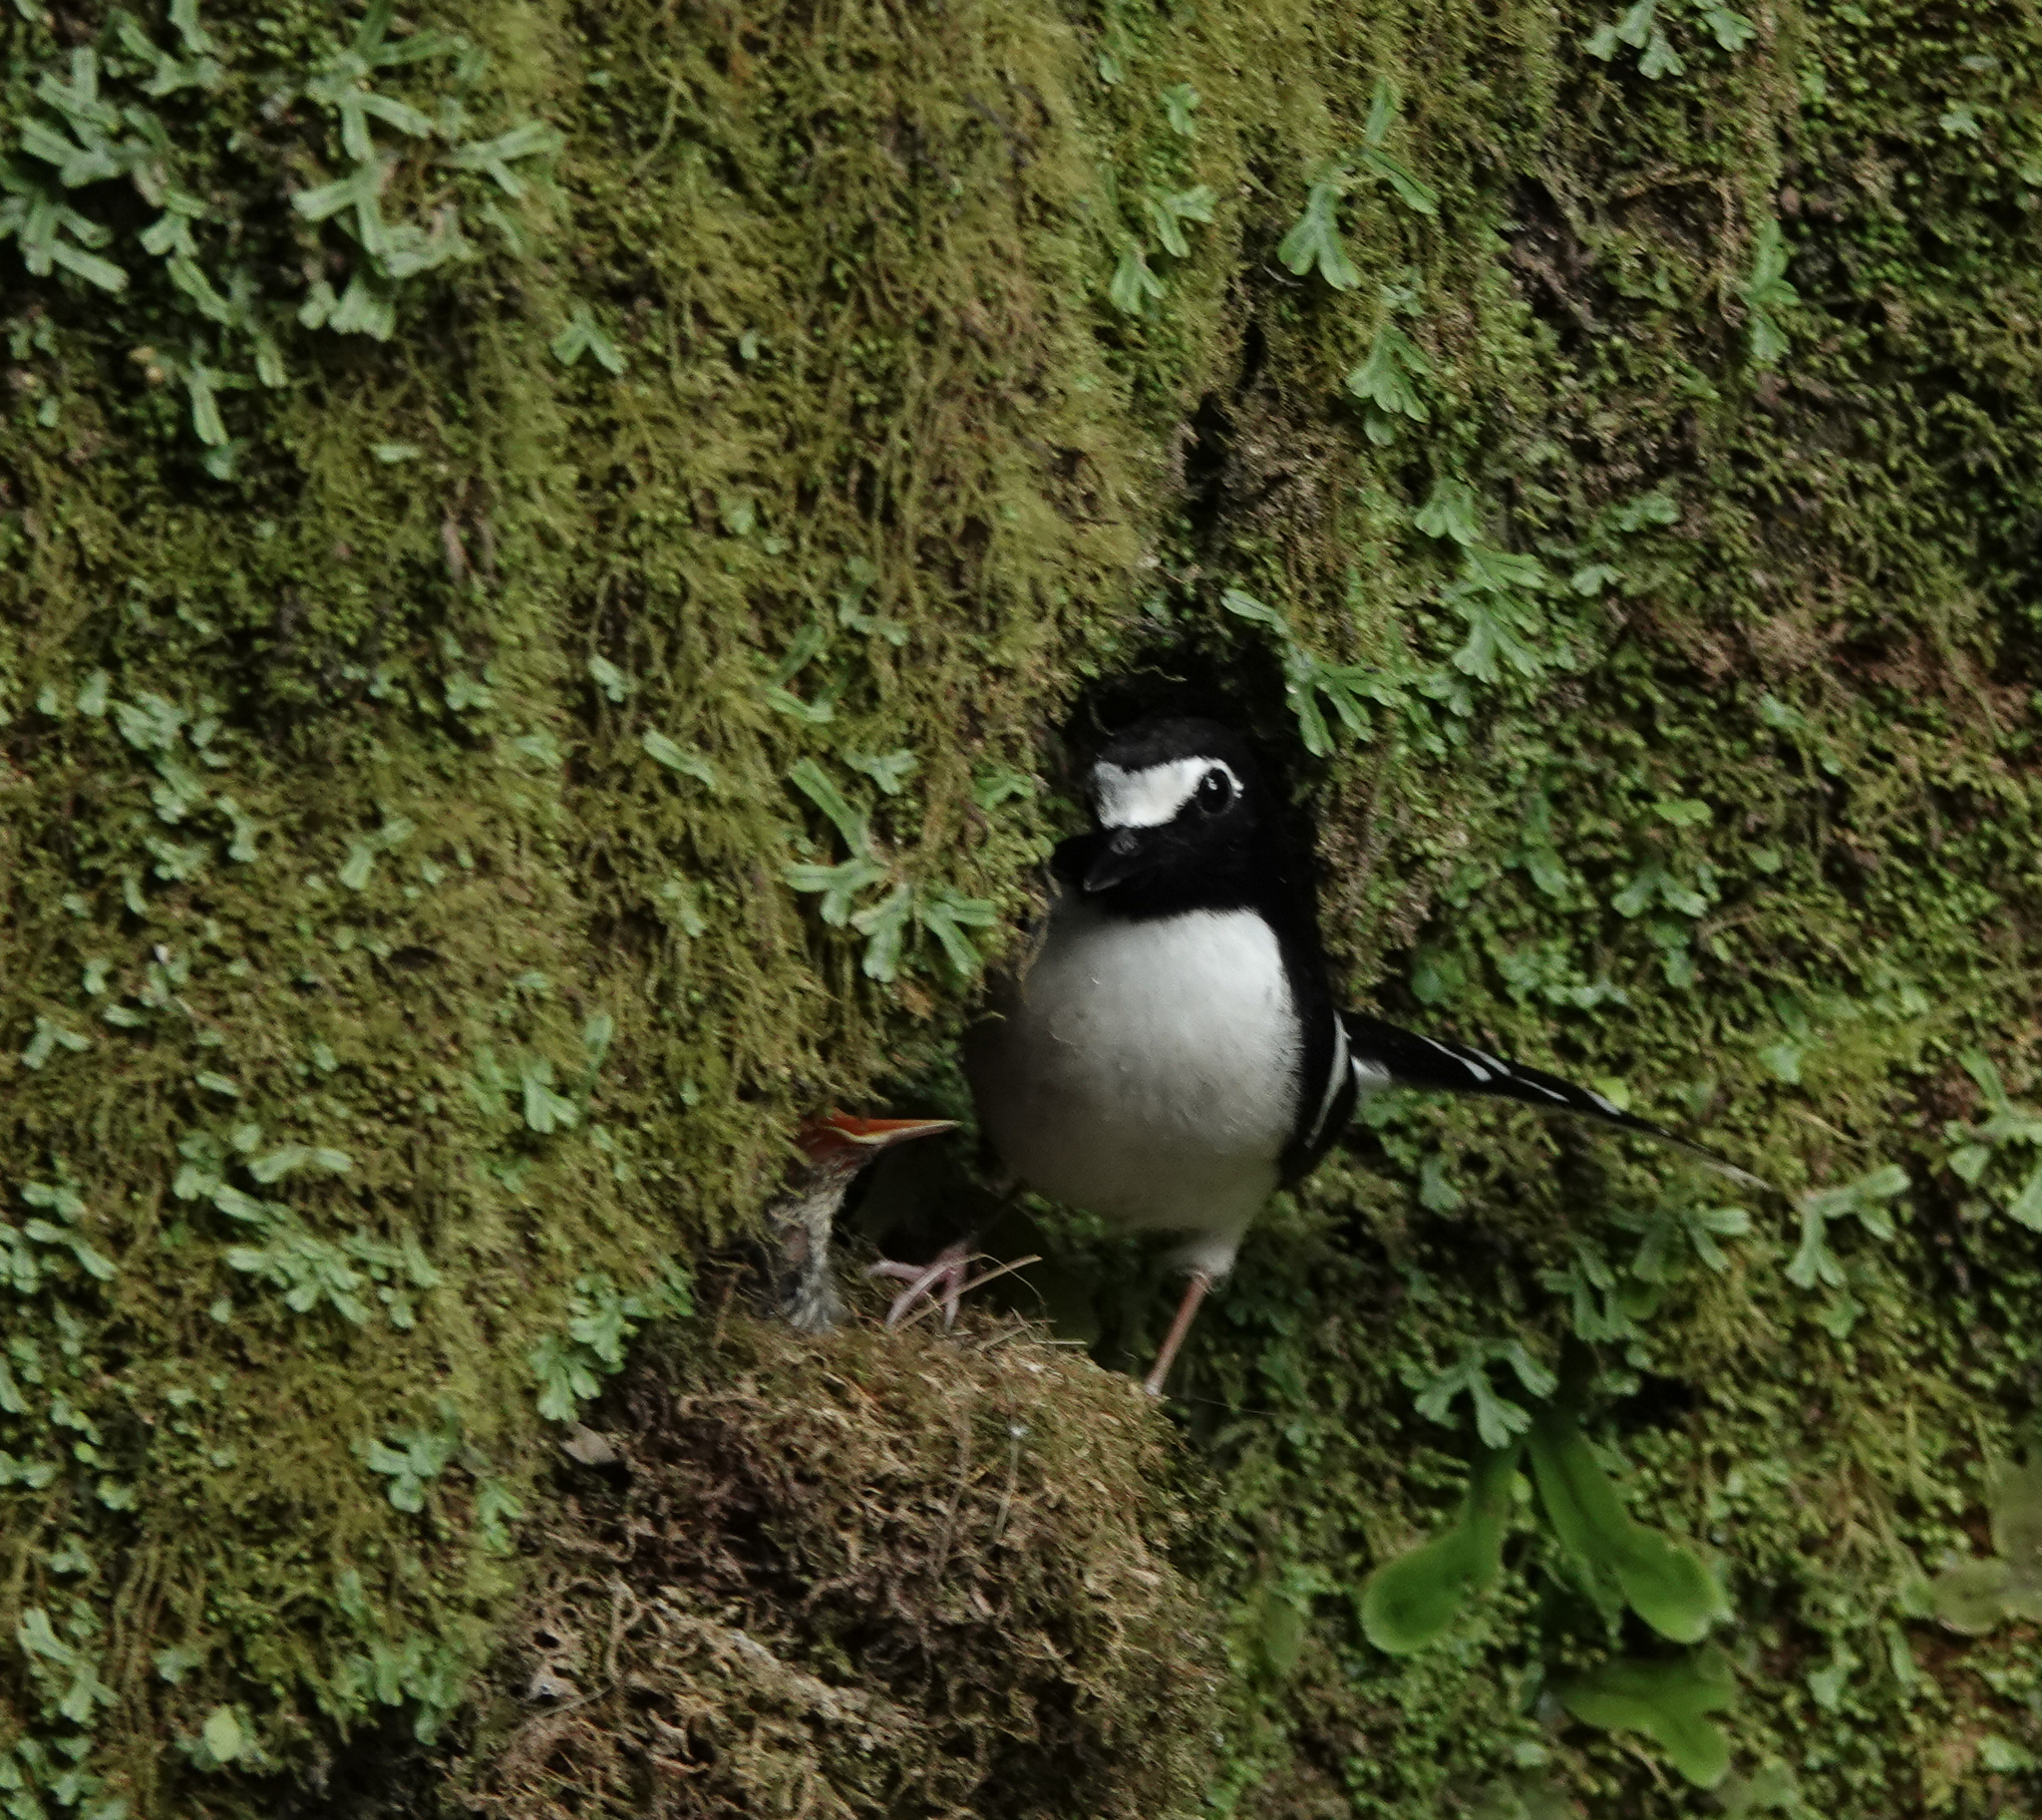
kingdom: Animalia
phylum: Chordata
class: Aves
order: Passeriformes
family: Muscicapidae
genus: Enicurus
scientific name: Enicurus immaculatus
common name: Black-backed forktail
